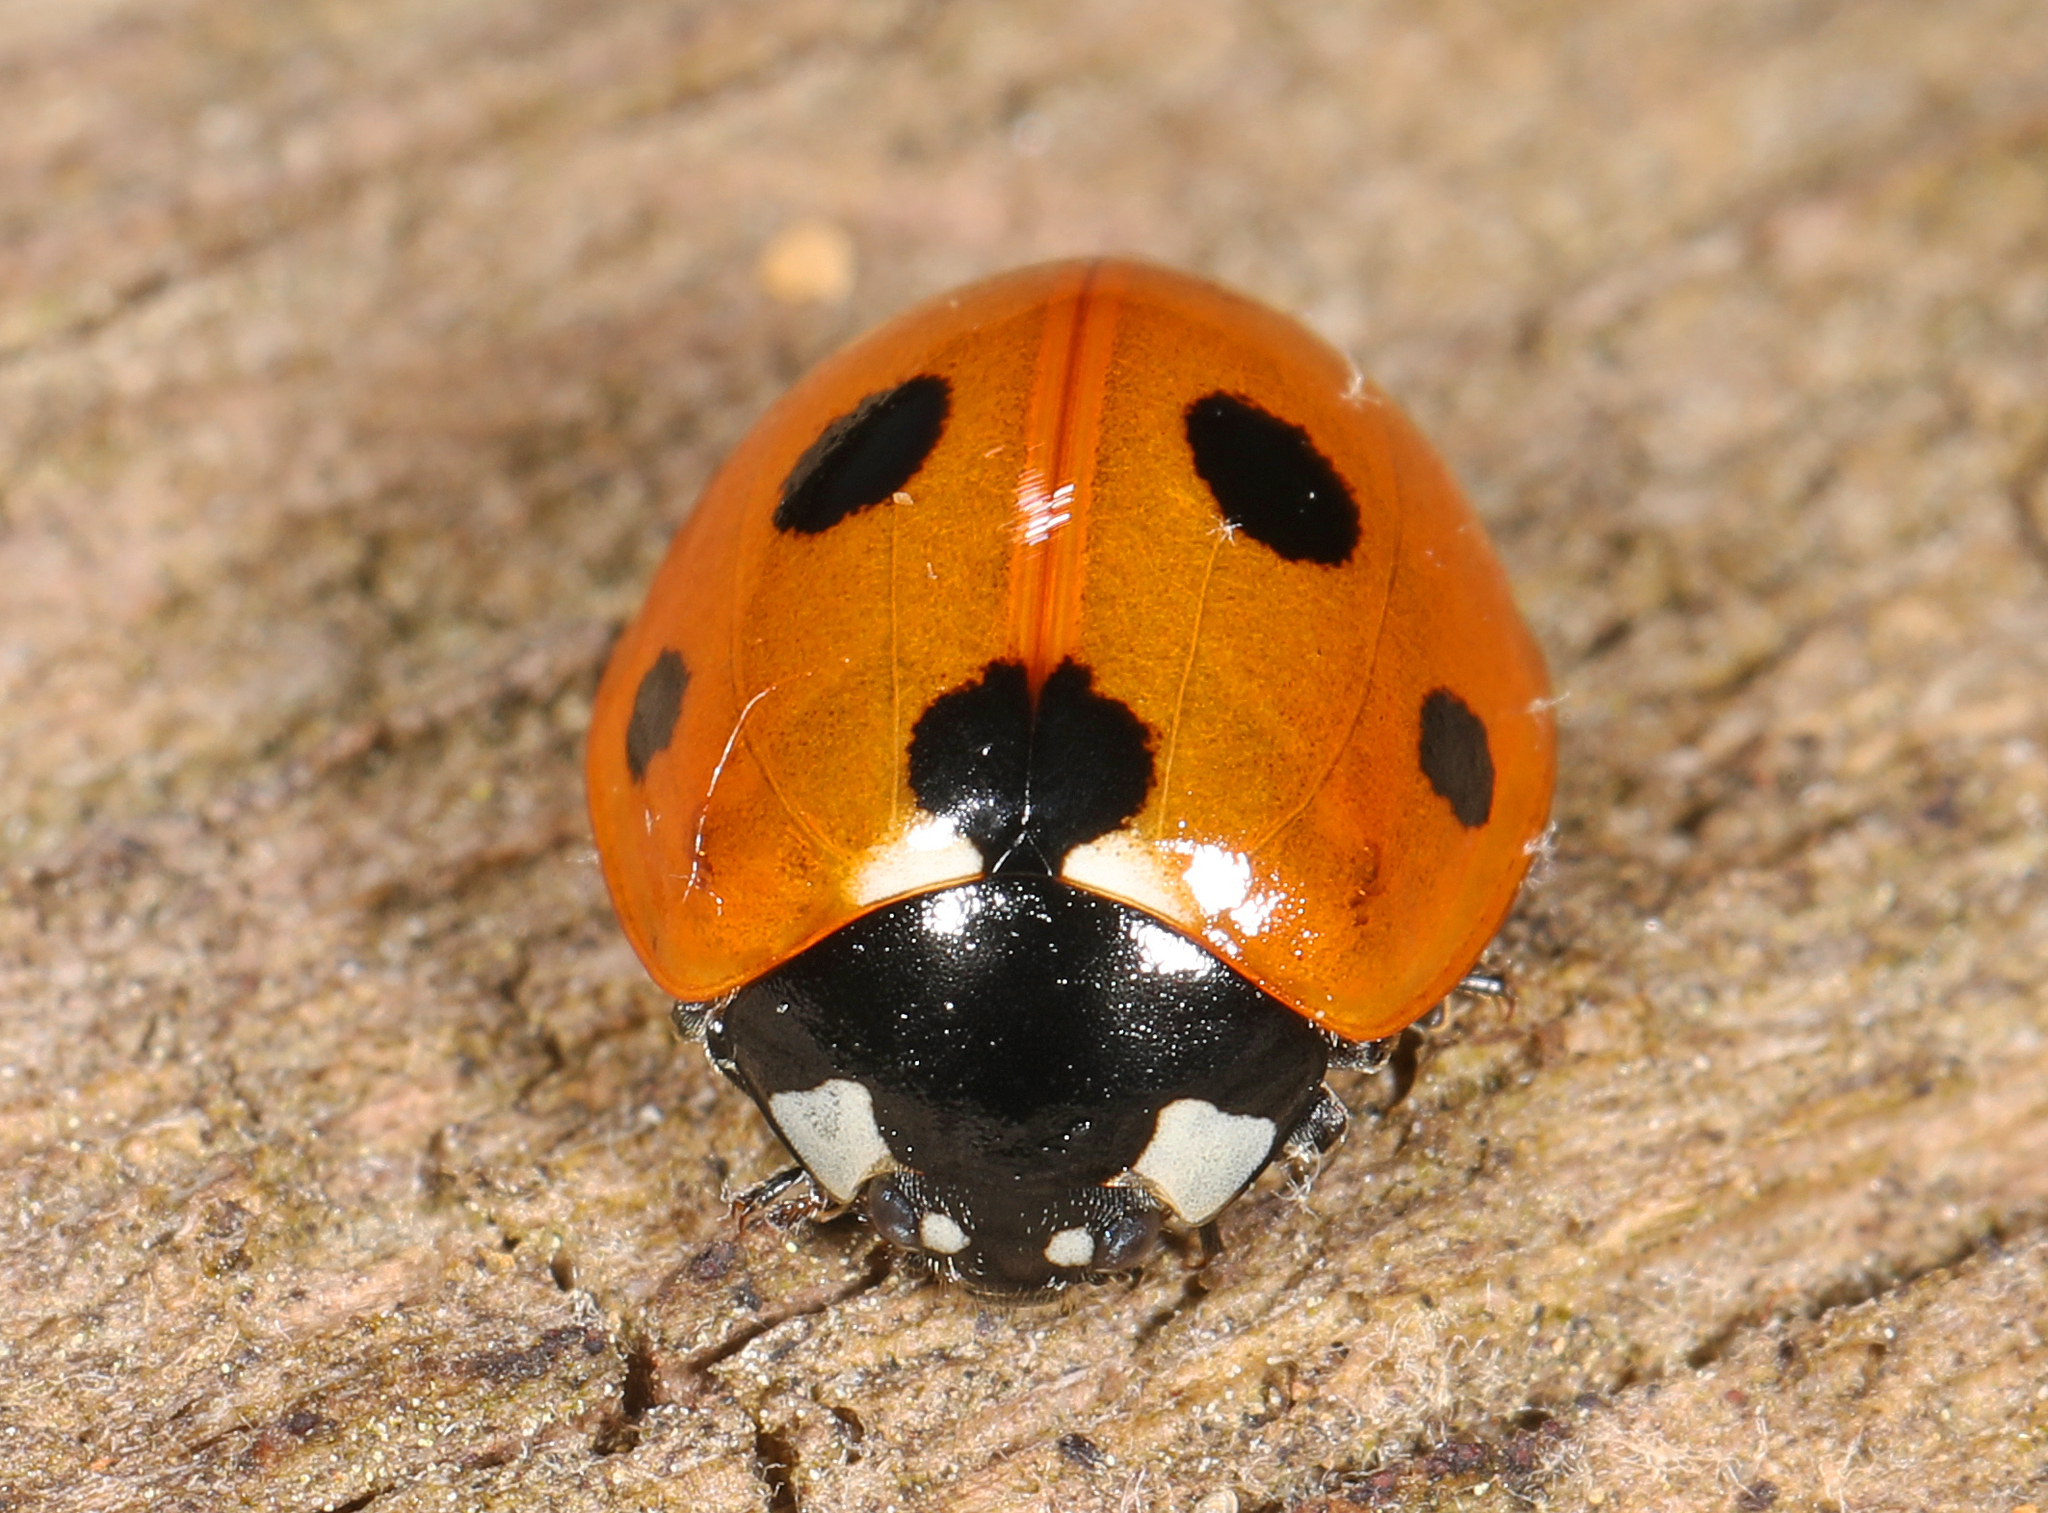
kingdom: Animalia
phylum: Arthropoda
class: Insecta
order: Coleoptera
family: Coccinellidae
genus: Coccinella
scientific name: Coccinella septempunctata
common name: Sevenspotted lady beetle
